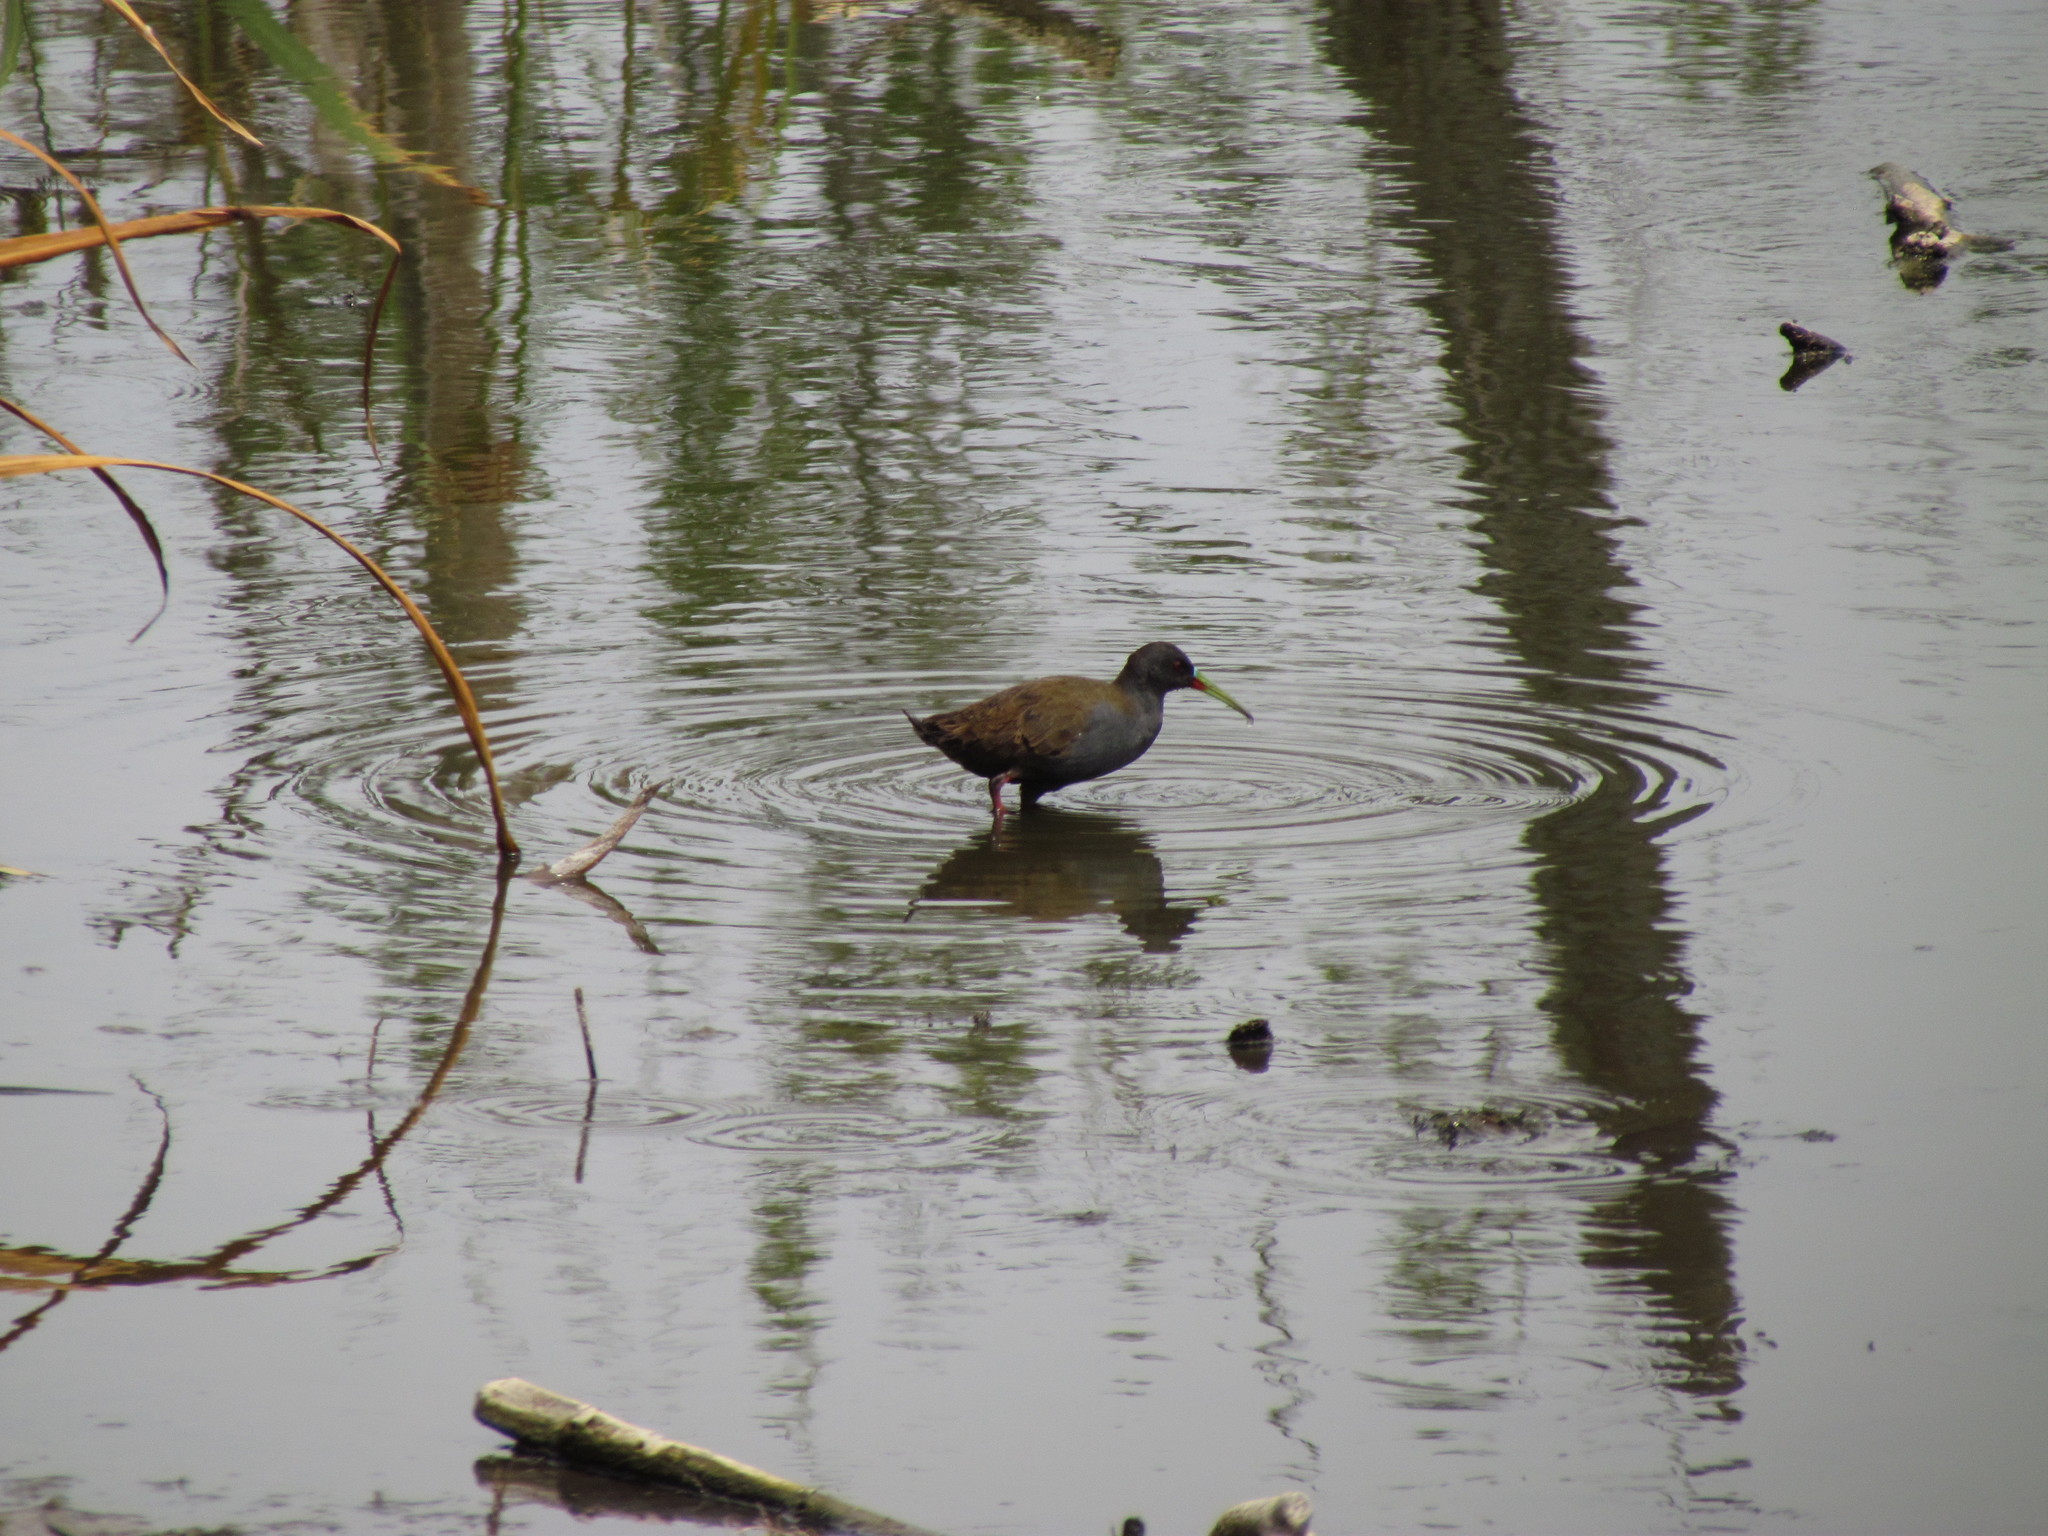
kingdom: Animalia
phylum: Chordata
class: Aves
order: Gruiformes
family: Rallidae
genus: Pardirallus
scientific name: Pardirallus sanguinolentus
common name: Plumbeous rail
